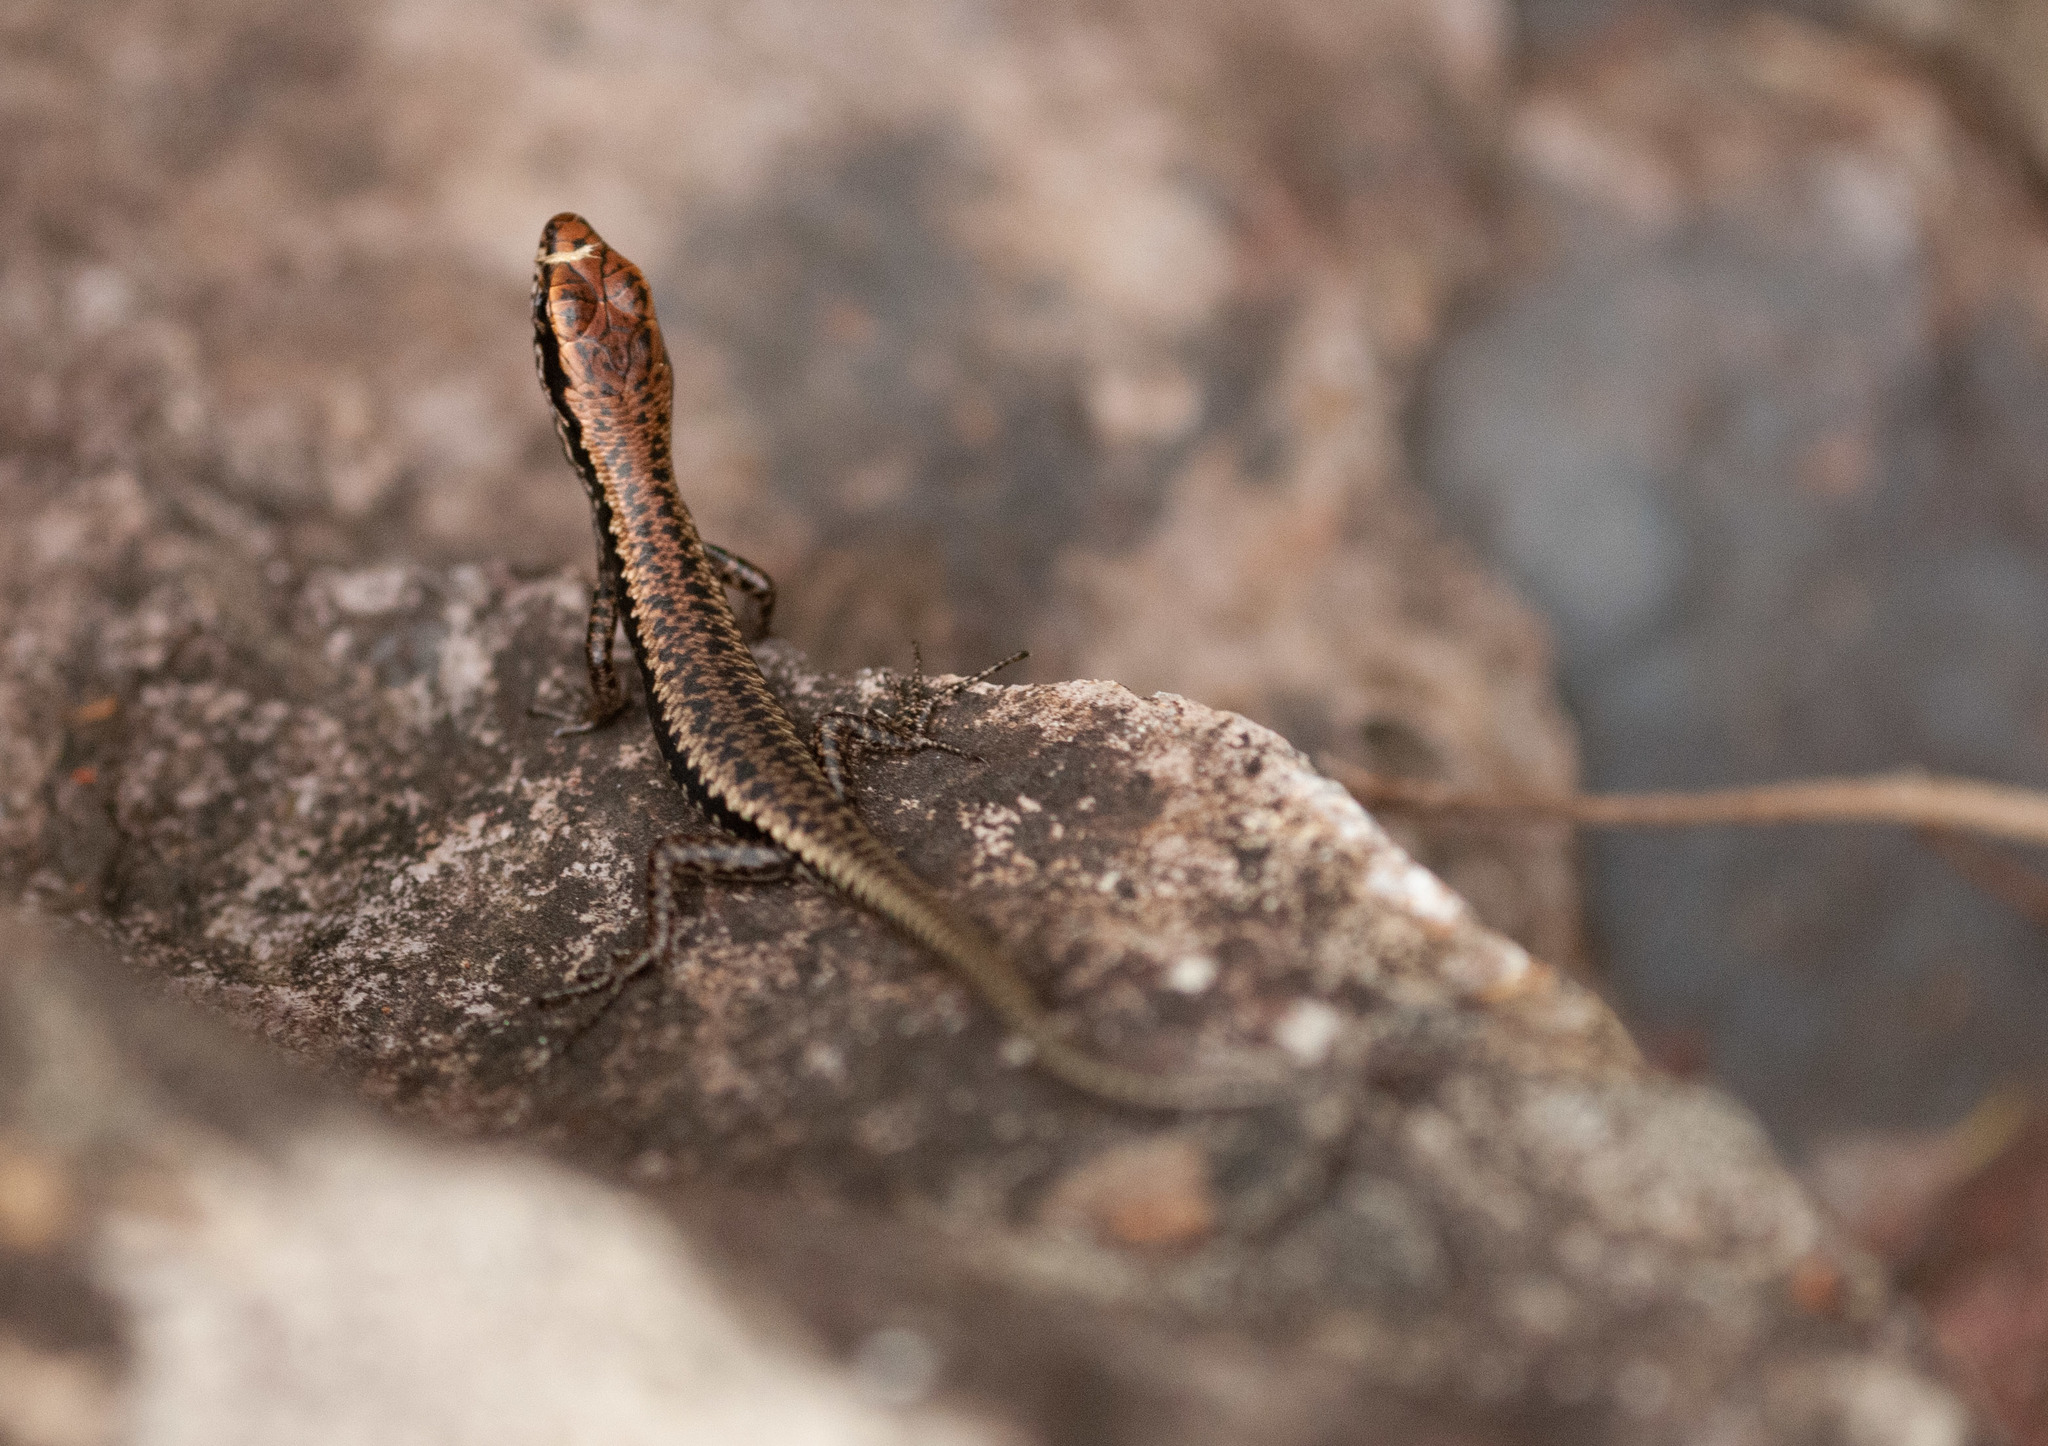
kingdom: Animalia
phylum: Chordata
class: Squamata
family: Scincidae
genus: Concinnia
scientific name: Concinnia martini
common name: Dark barsided skink
